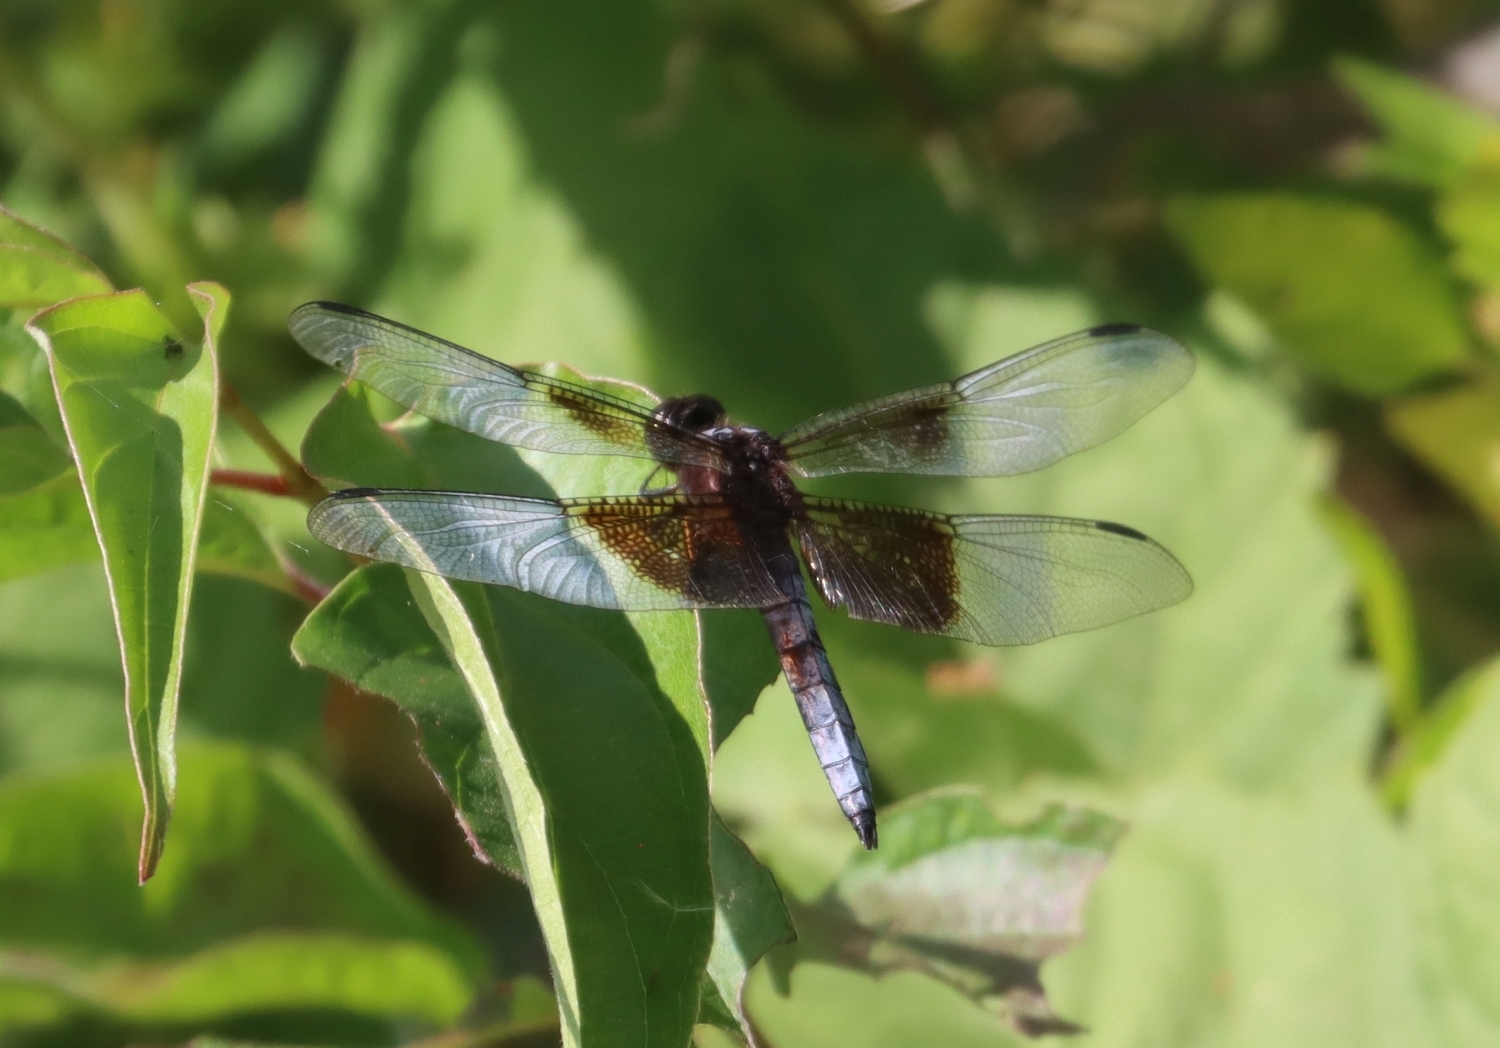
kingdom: Animalia
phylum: Arthropoda
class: Insecta
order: Odonata
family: Libellulidae
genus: Libellula
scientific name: Libellula luctuosa
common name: Widow skimmer
